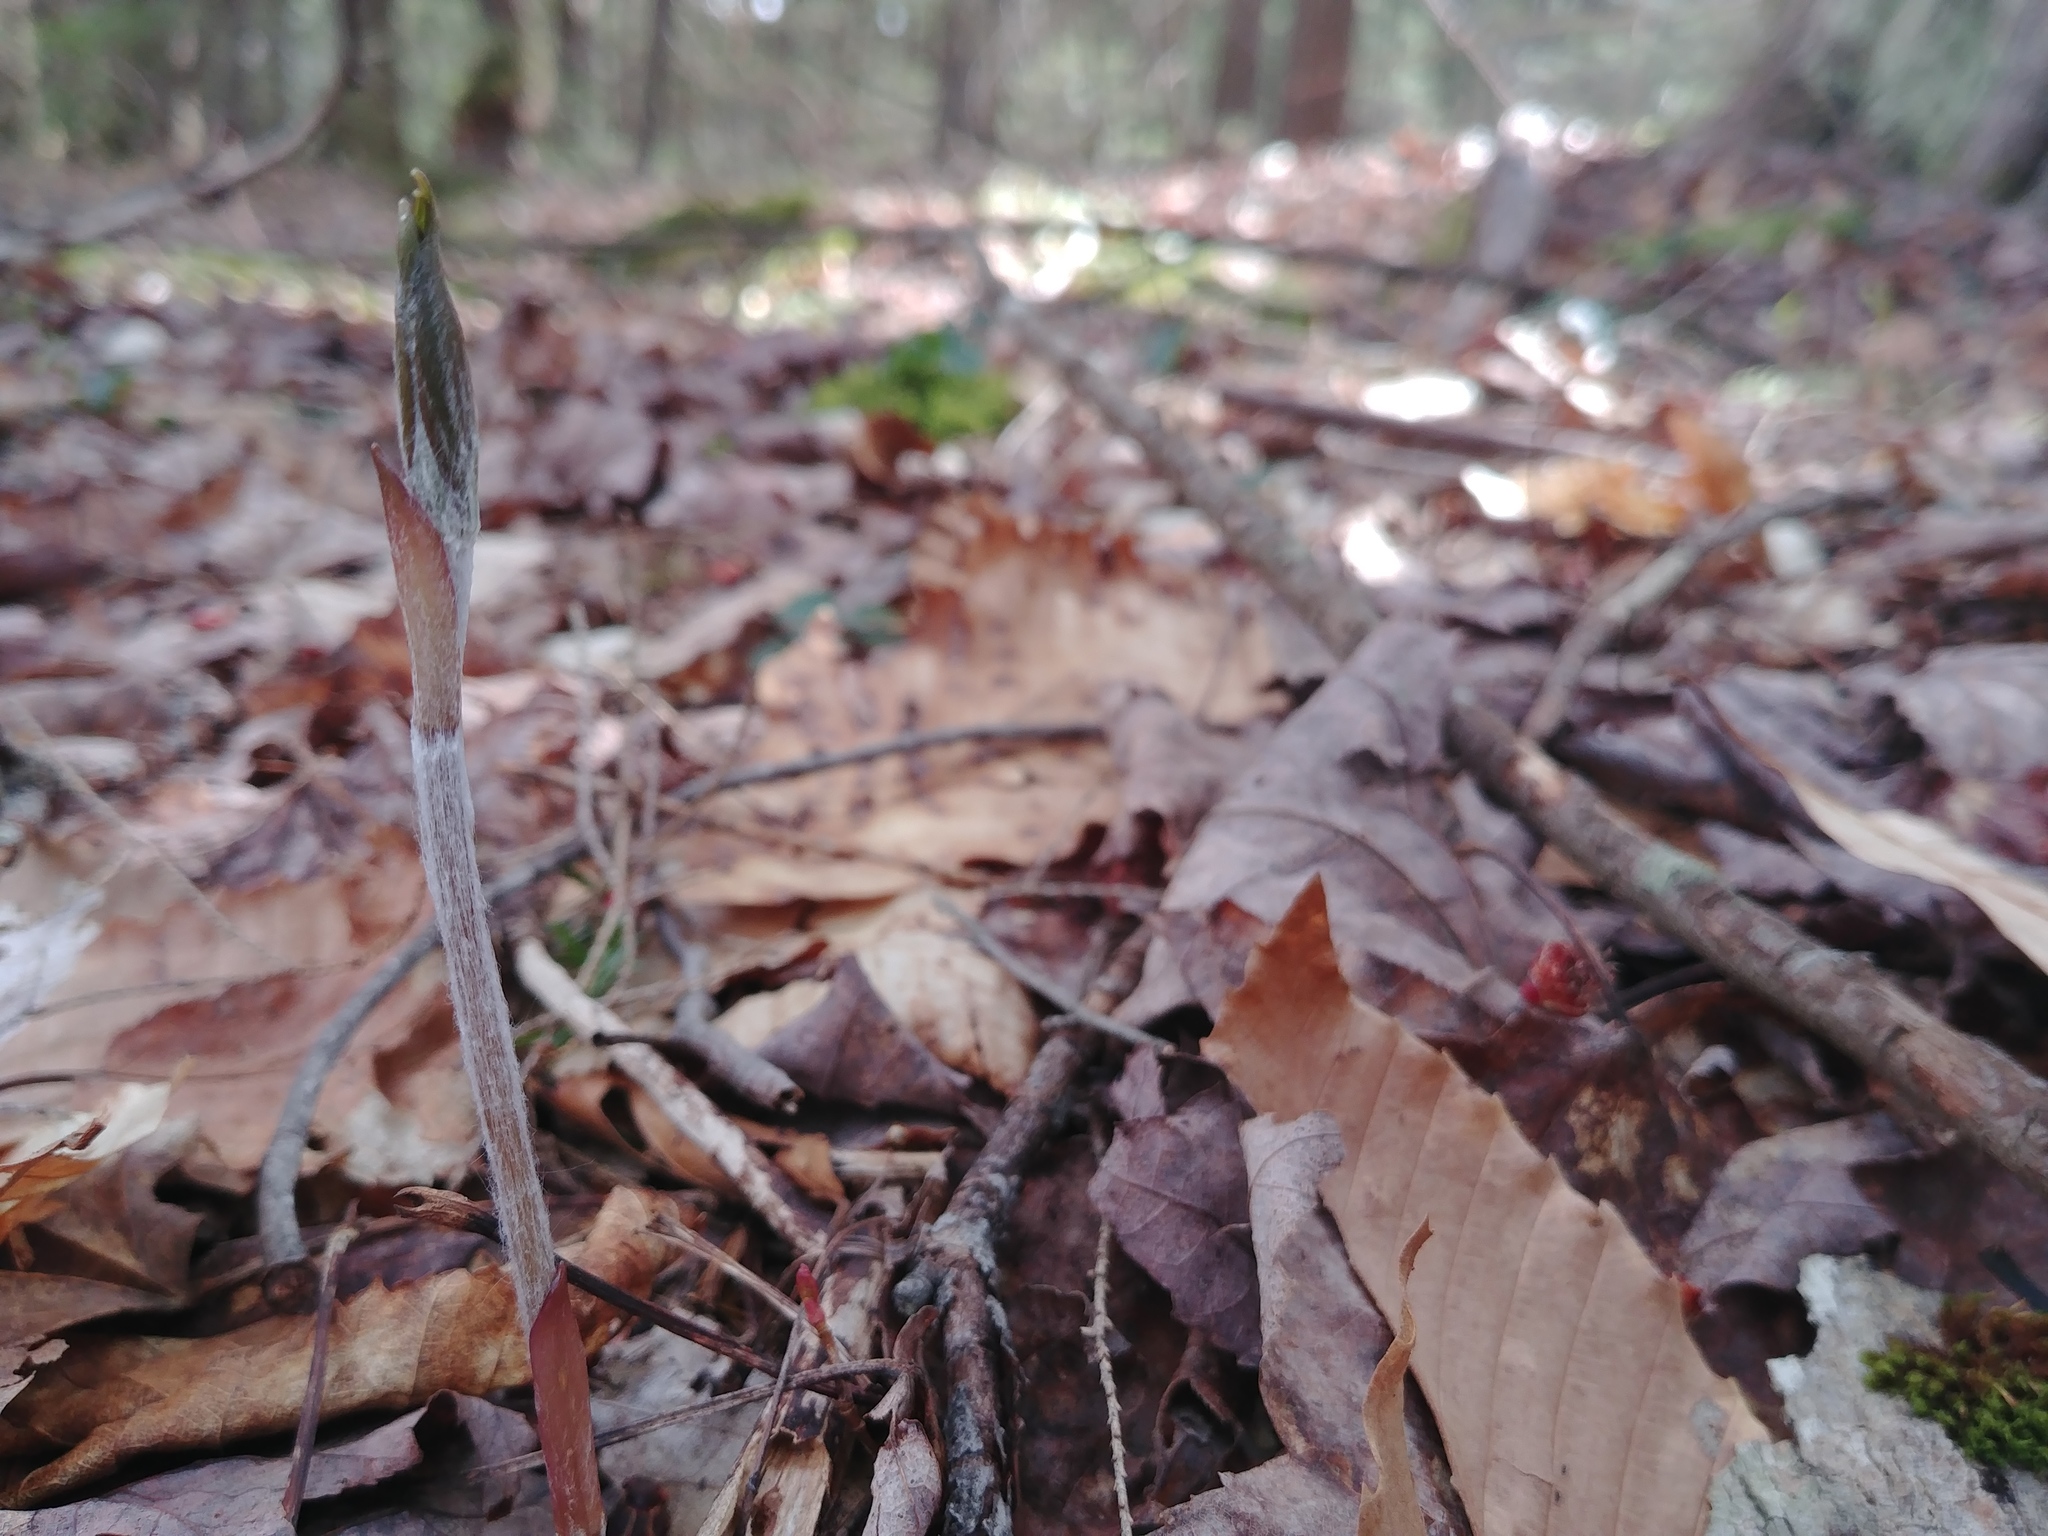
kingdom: Plantae
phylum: Tracheophyta
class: Liliopsida
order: Liliales
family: Liliaceae
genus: Medeola
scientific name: Medeola virginiana
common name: Indian cucumber-root
